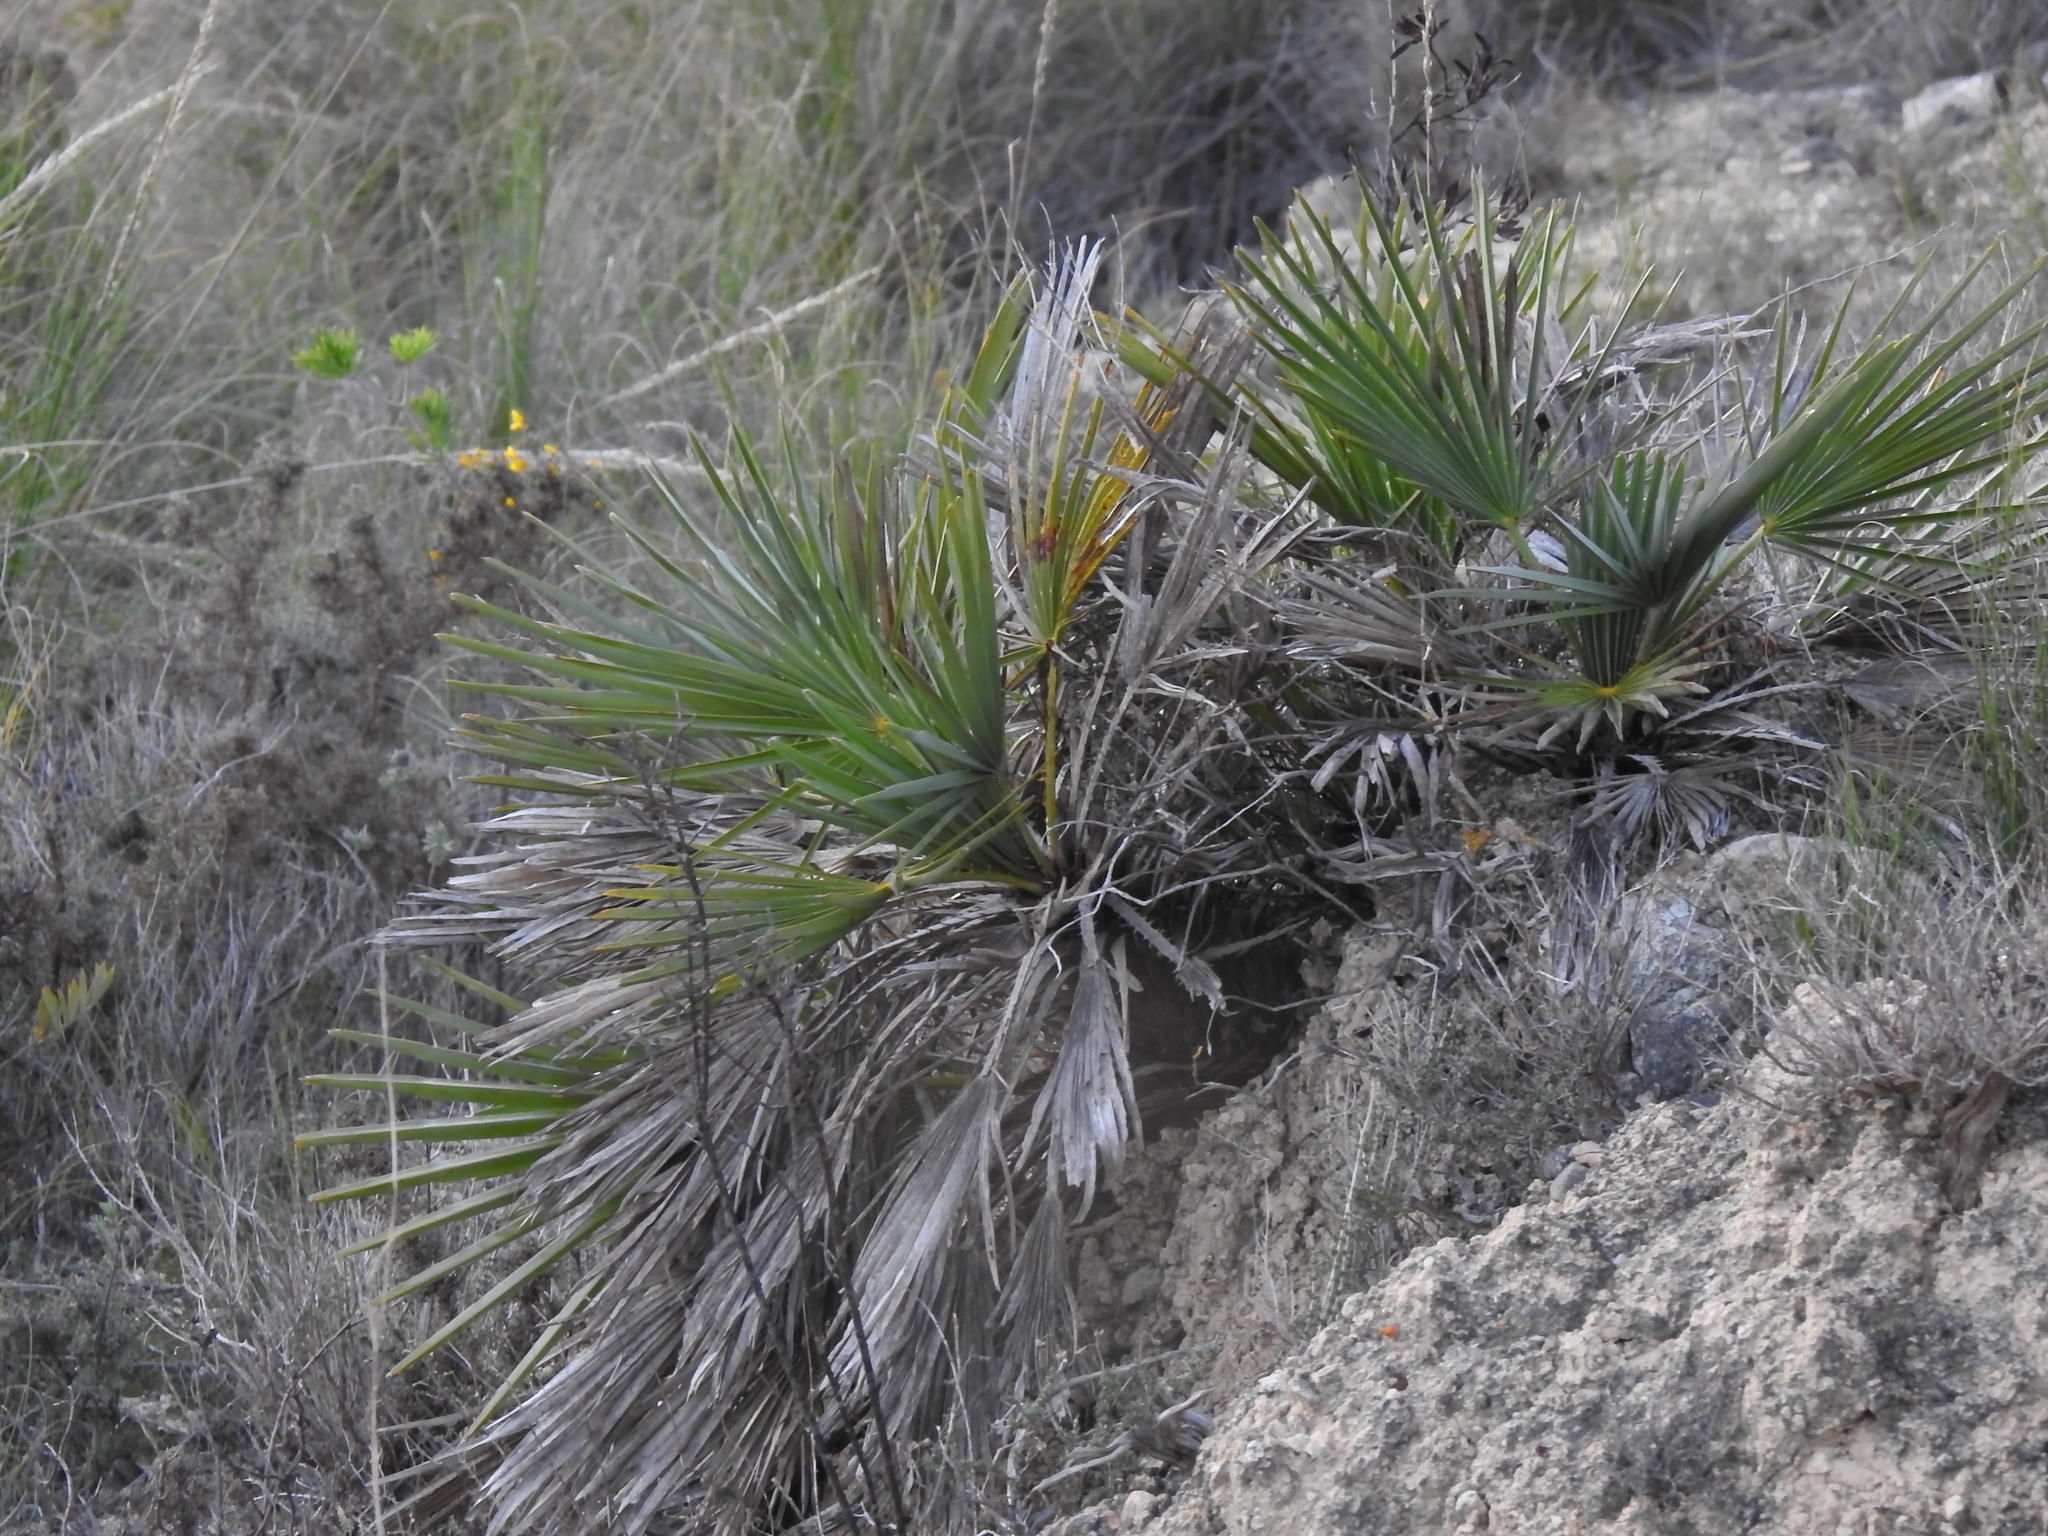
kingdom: Plantae
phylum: Tracheophyta
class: Liliopsida
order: Arecales
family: Arecaceae
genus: Chamaerops
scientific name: Chamaerops humilis
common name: Dwarf fan palm
